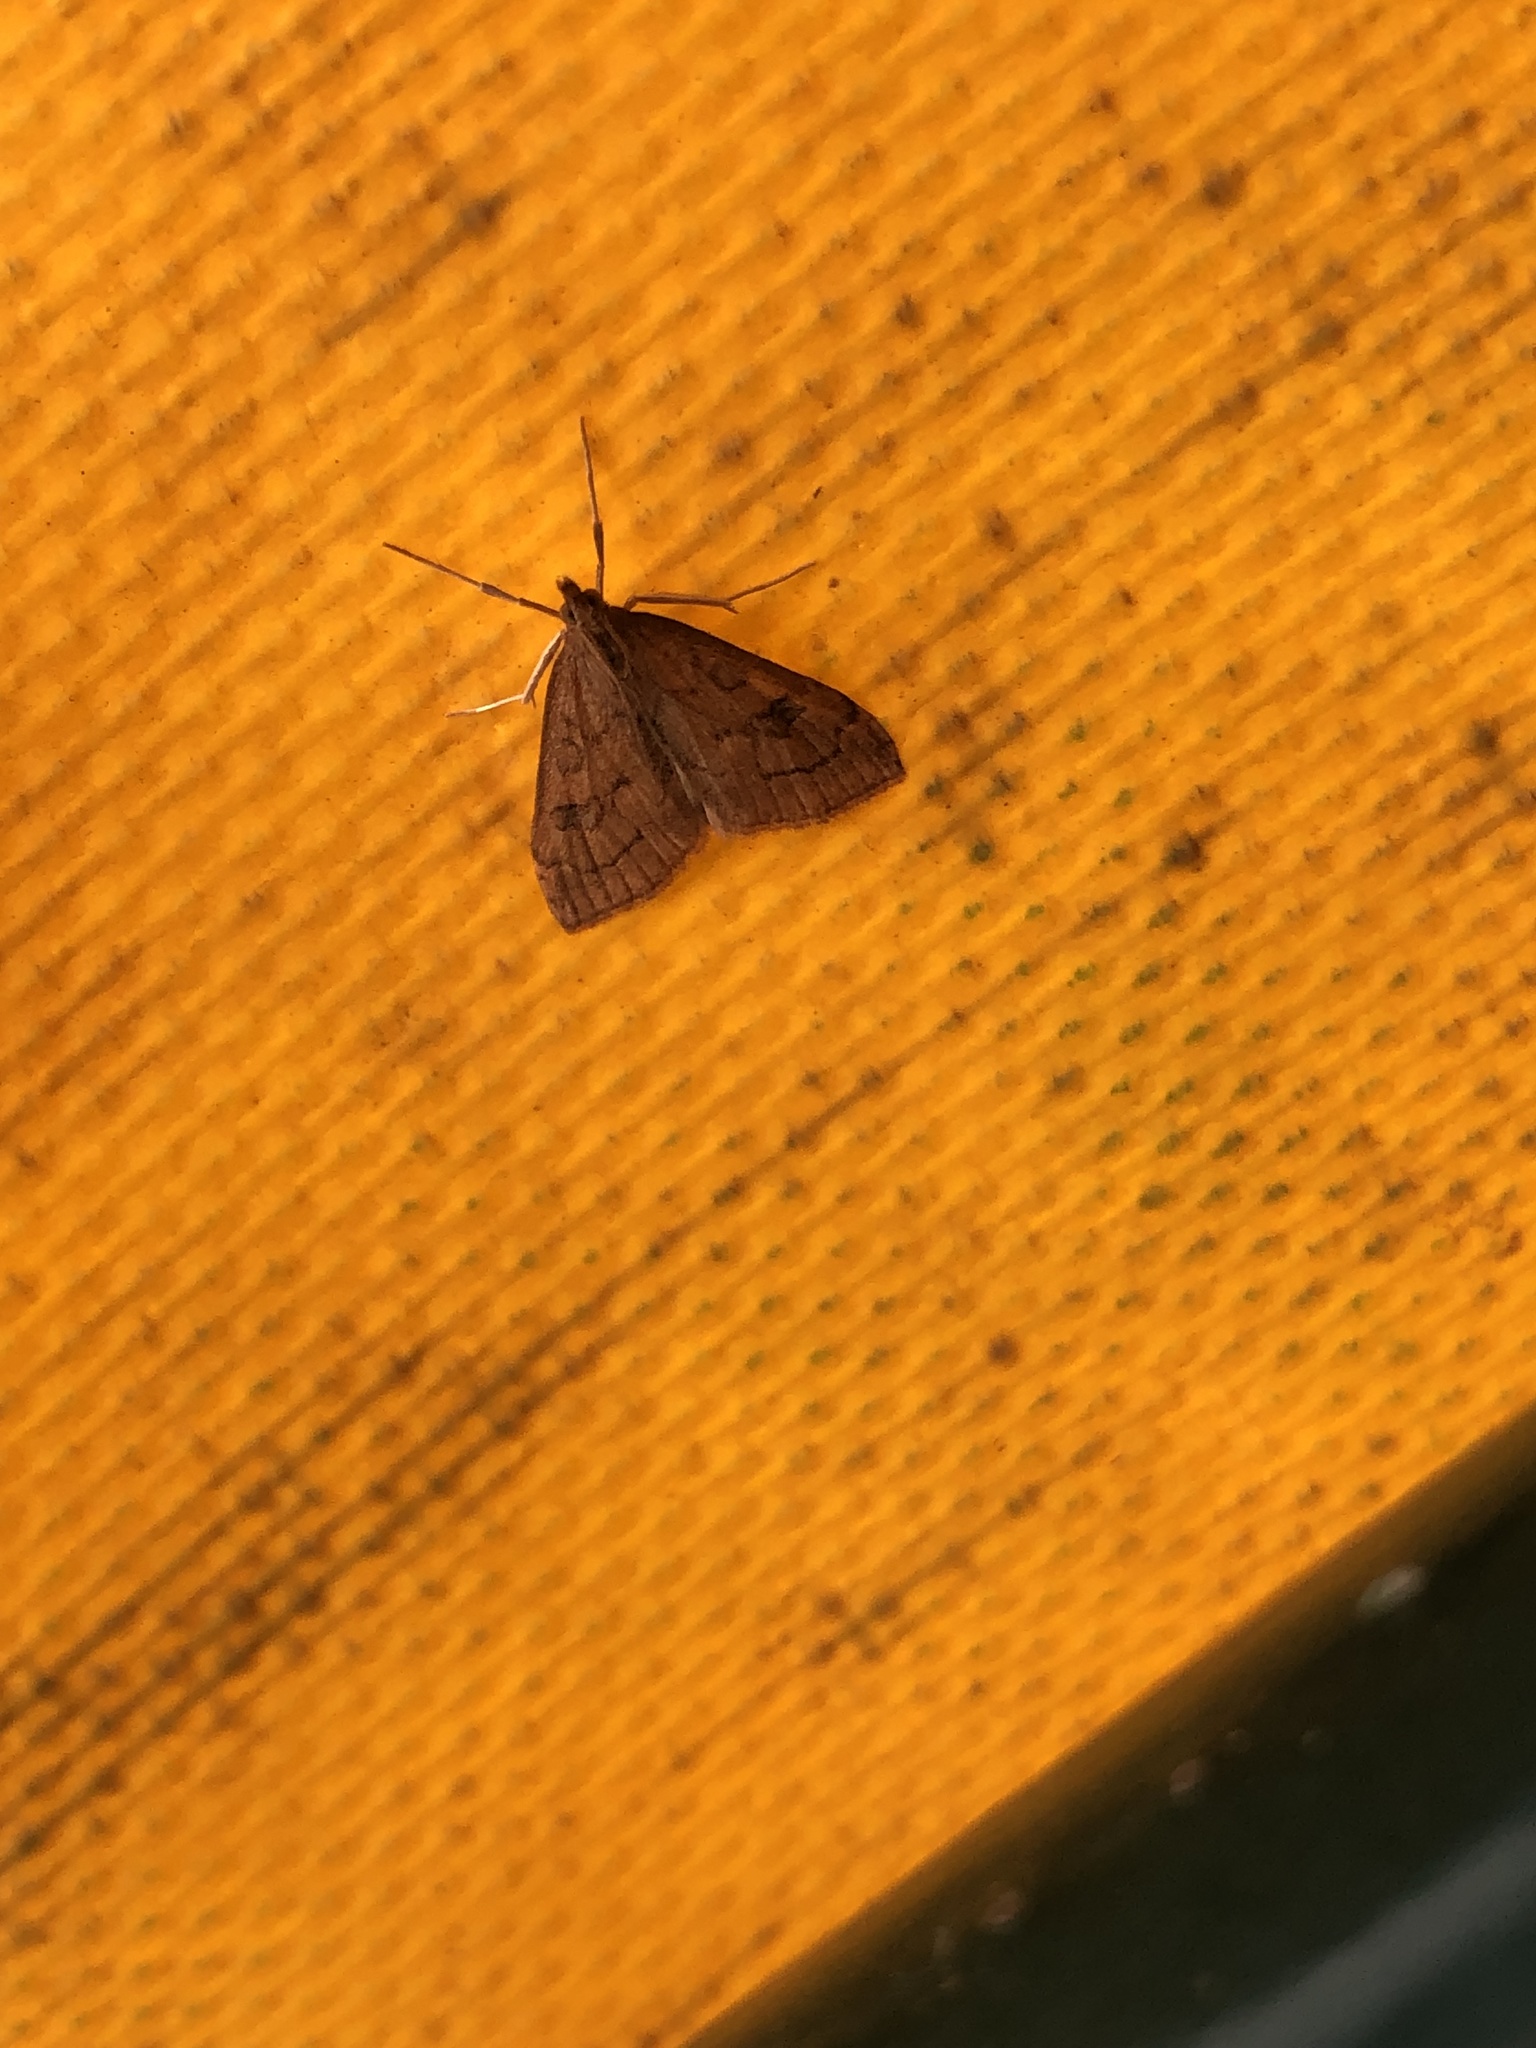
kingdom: Animalia
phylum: Arthropoda
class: Insecta
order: Lepidoptera
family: Crambidae
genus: Udea
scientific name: Udea profundalis
